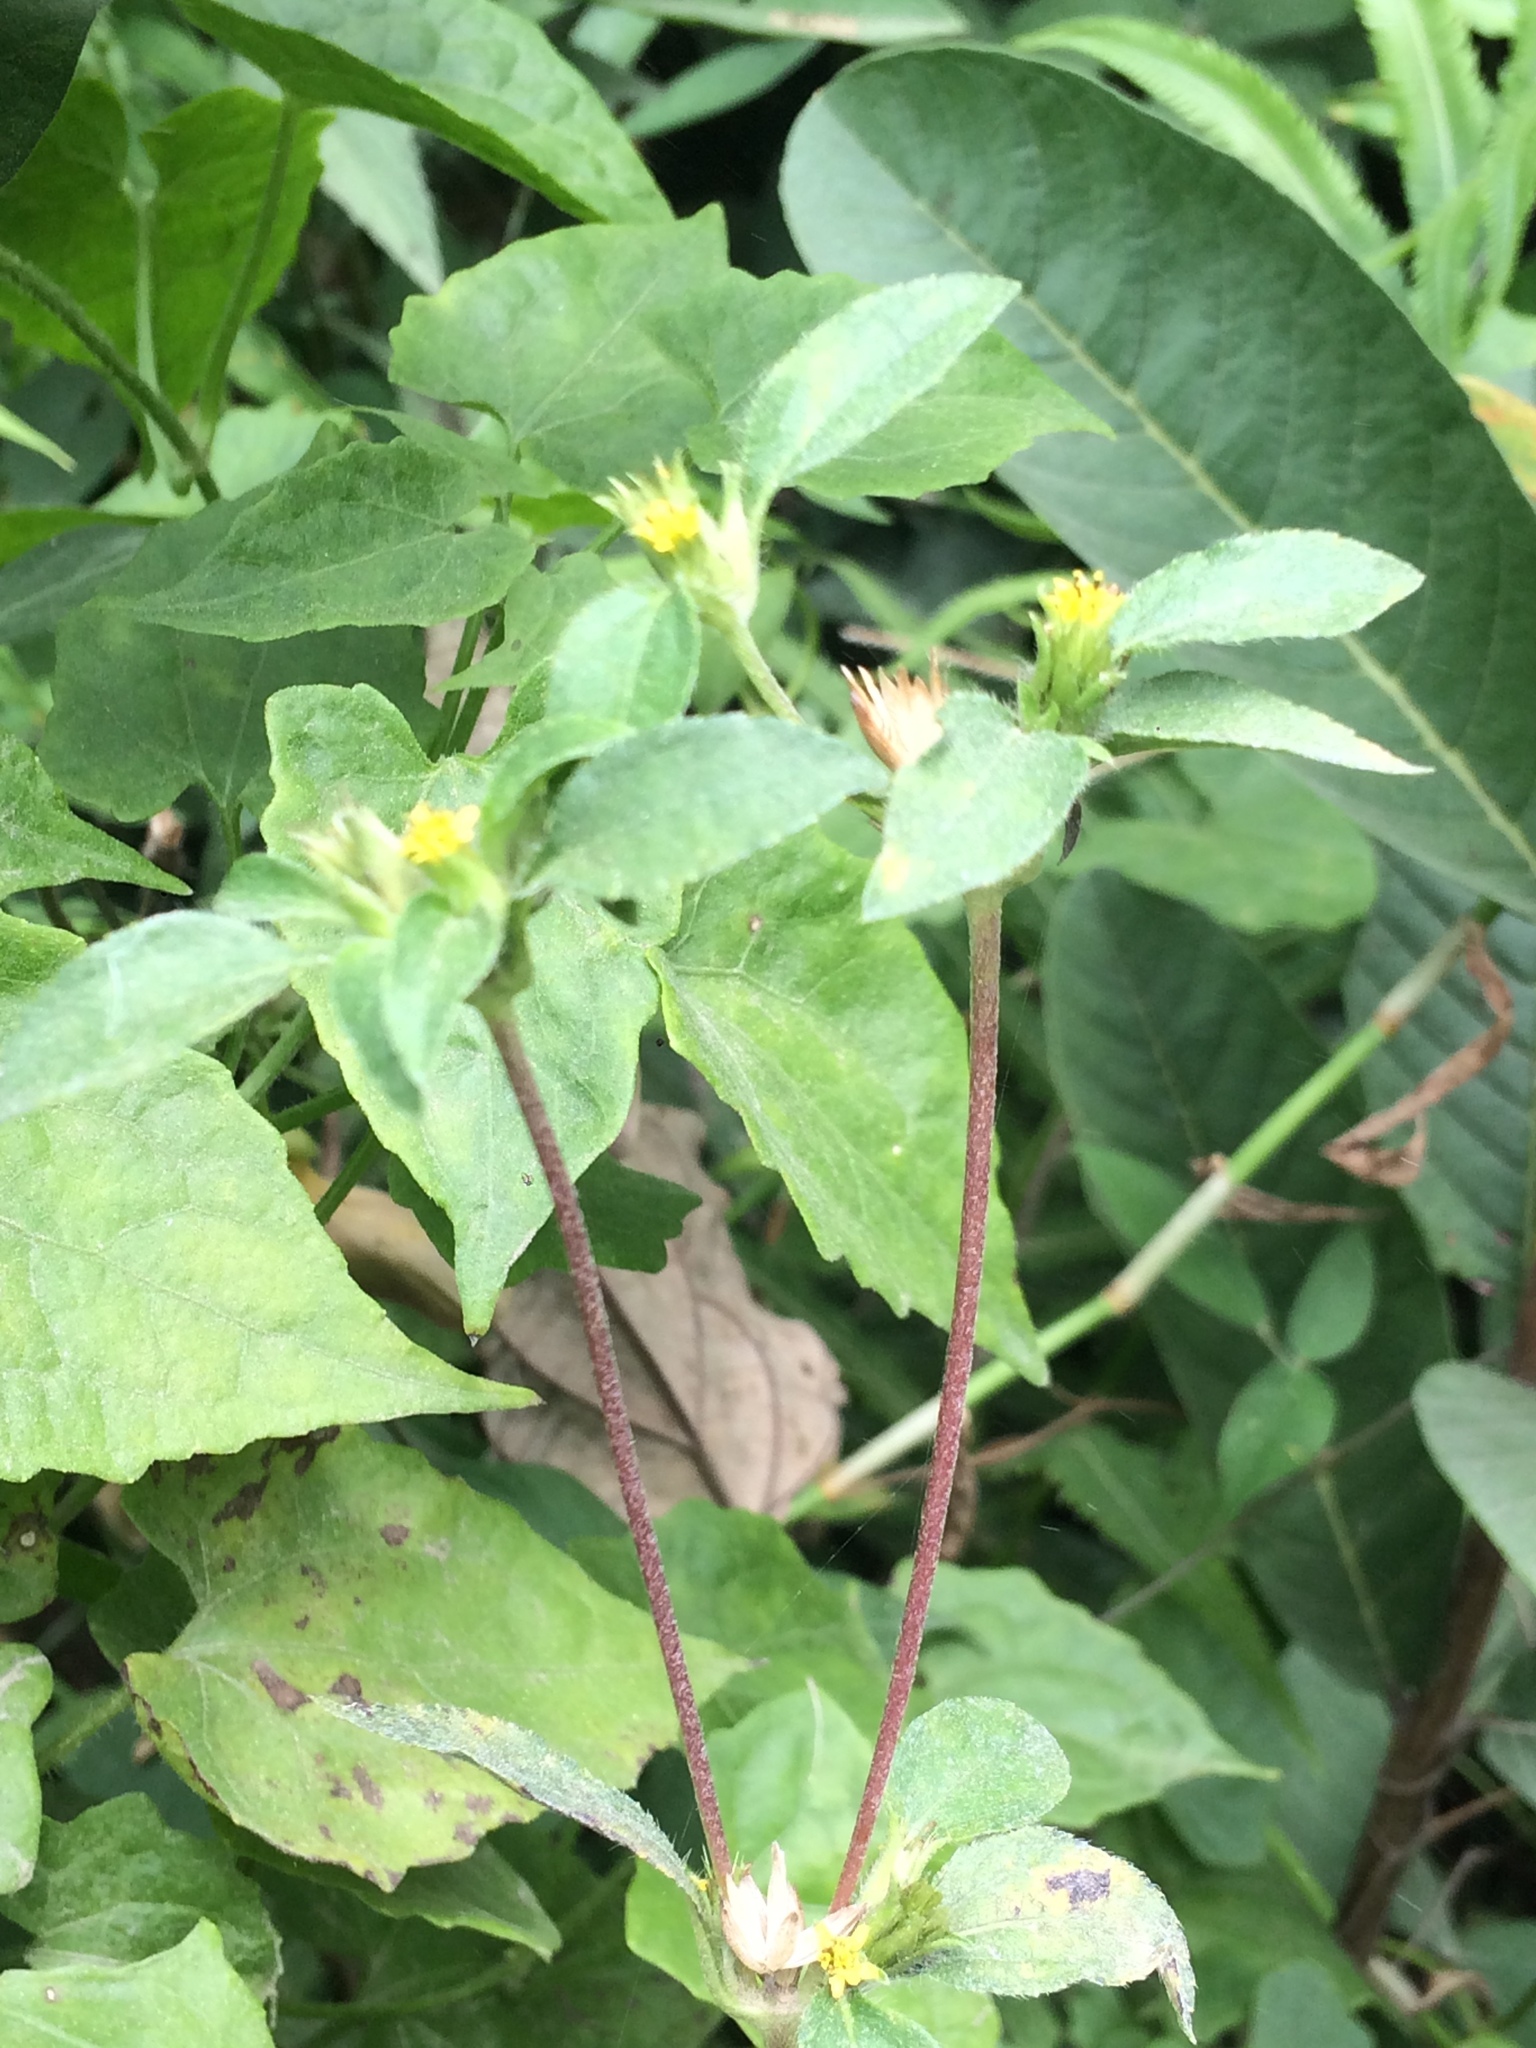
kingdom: Plantae
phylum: Tracheophyta
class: Magnoliopsida
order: Asterales
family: Asteraceae
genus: Synedrella
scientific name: Synedrella nodiflora
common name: Nodeweed
